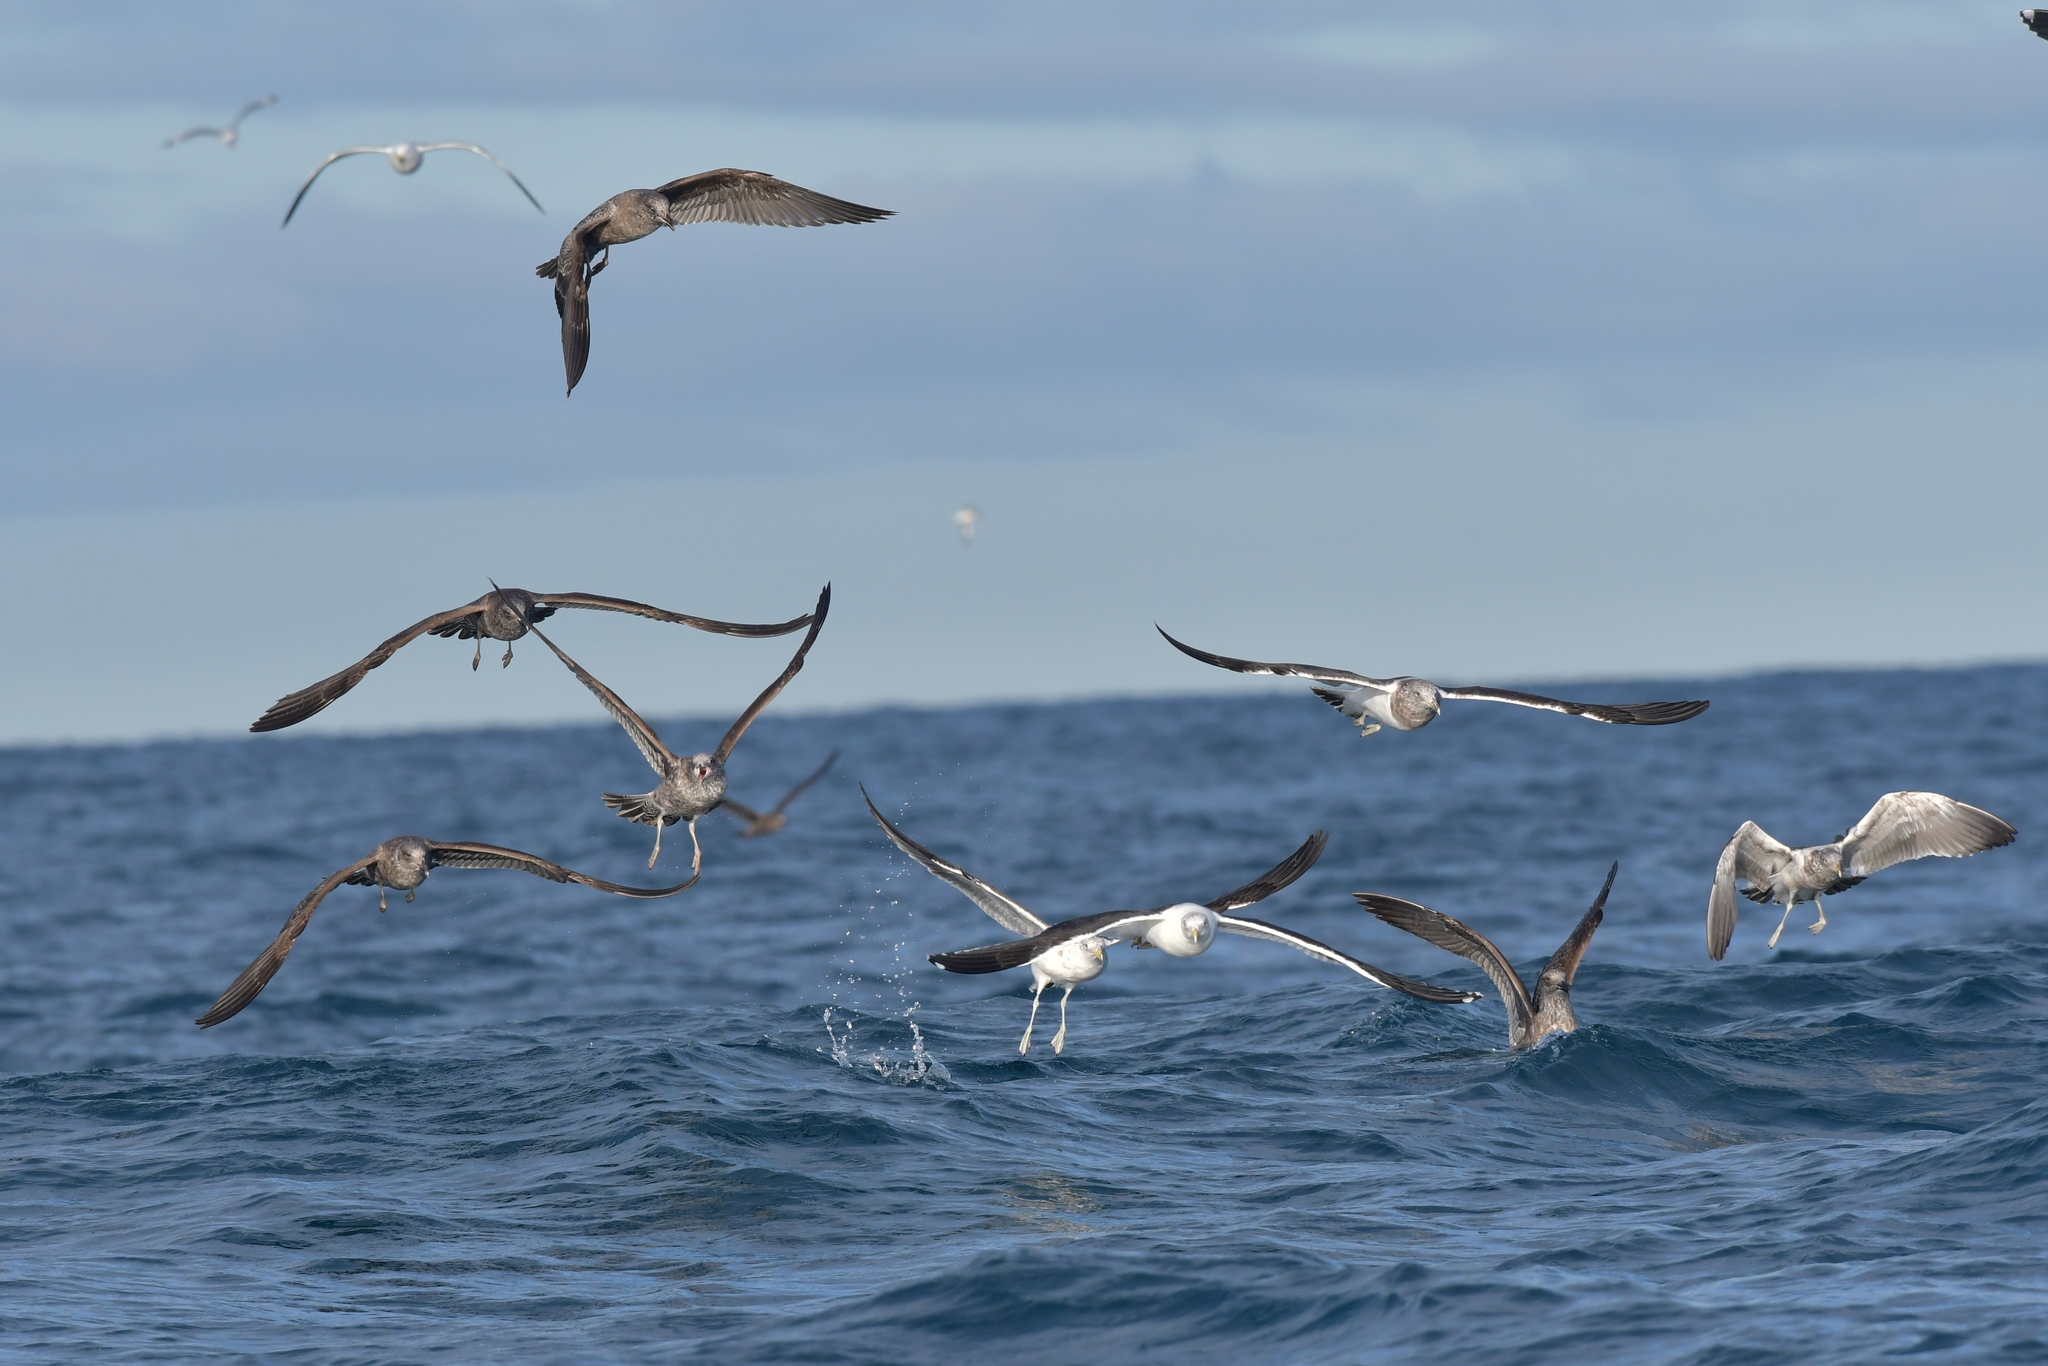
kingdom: Animalia
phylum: Chordata
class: Aves
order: Charadriiformes
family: Laridae
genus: Larus
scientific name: Larus dominicanus
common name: Kelp gull
